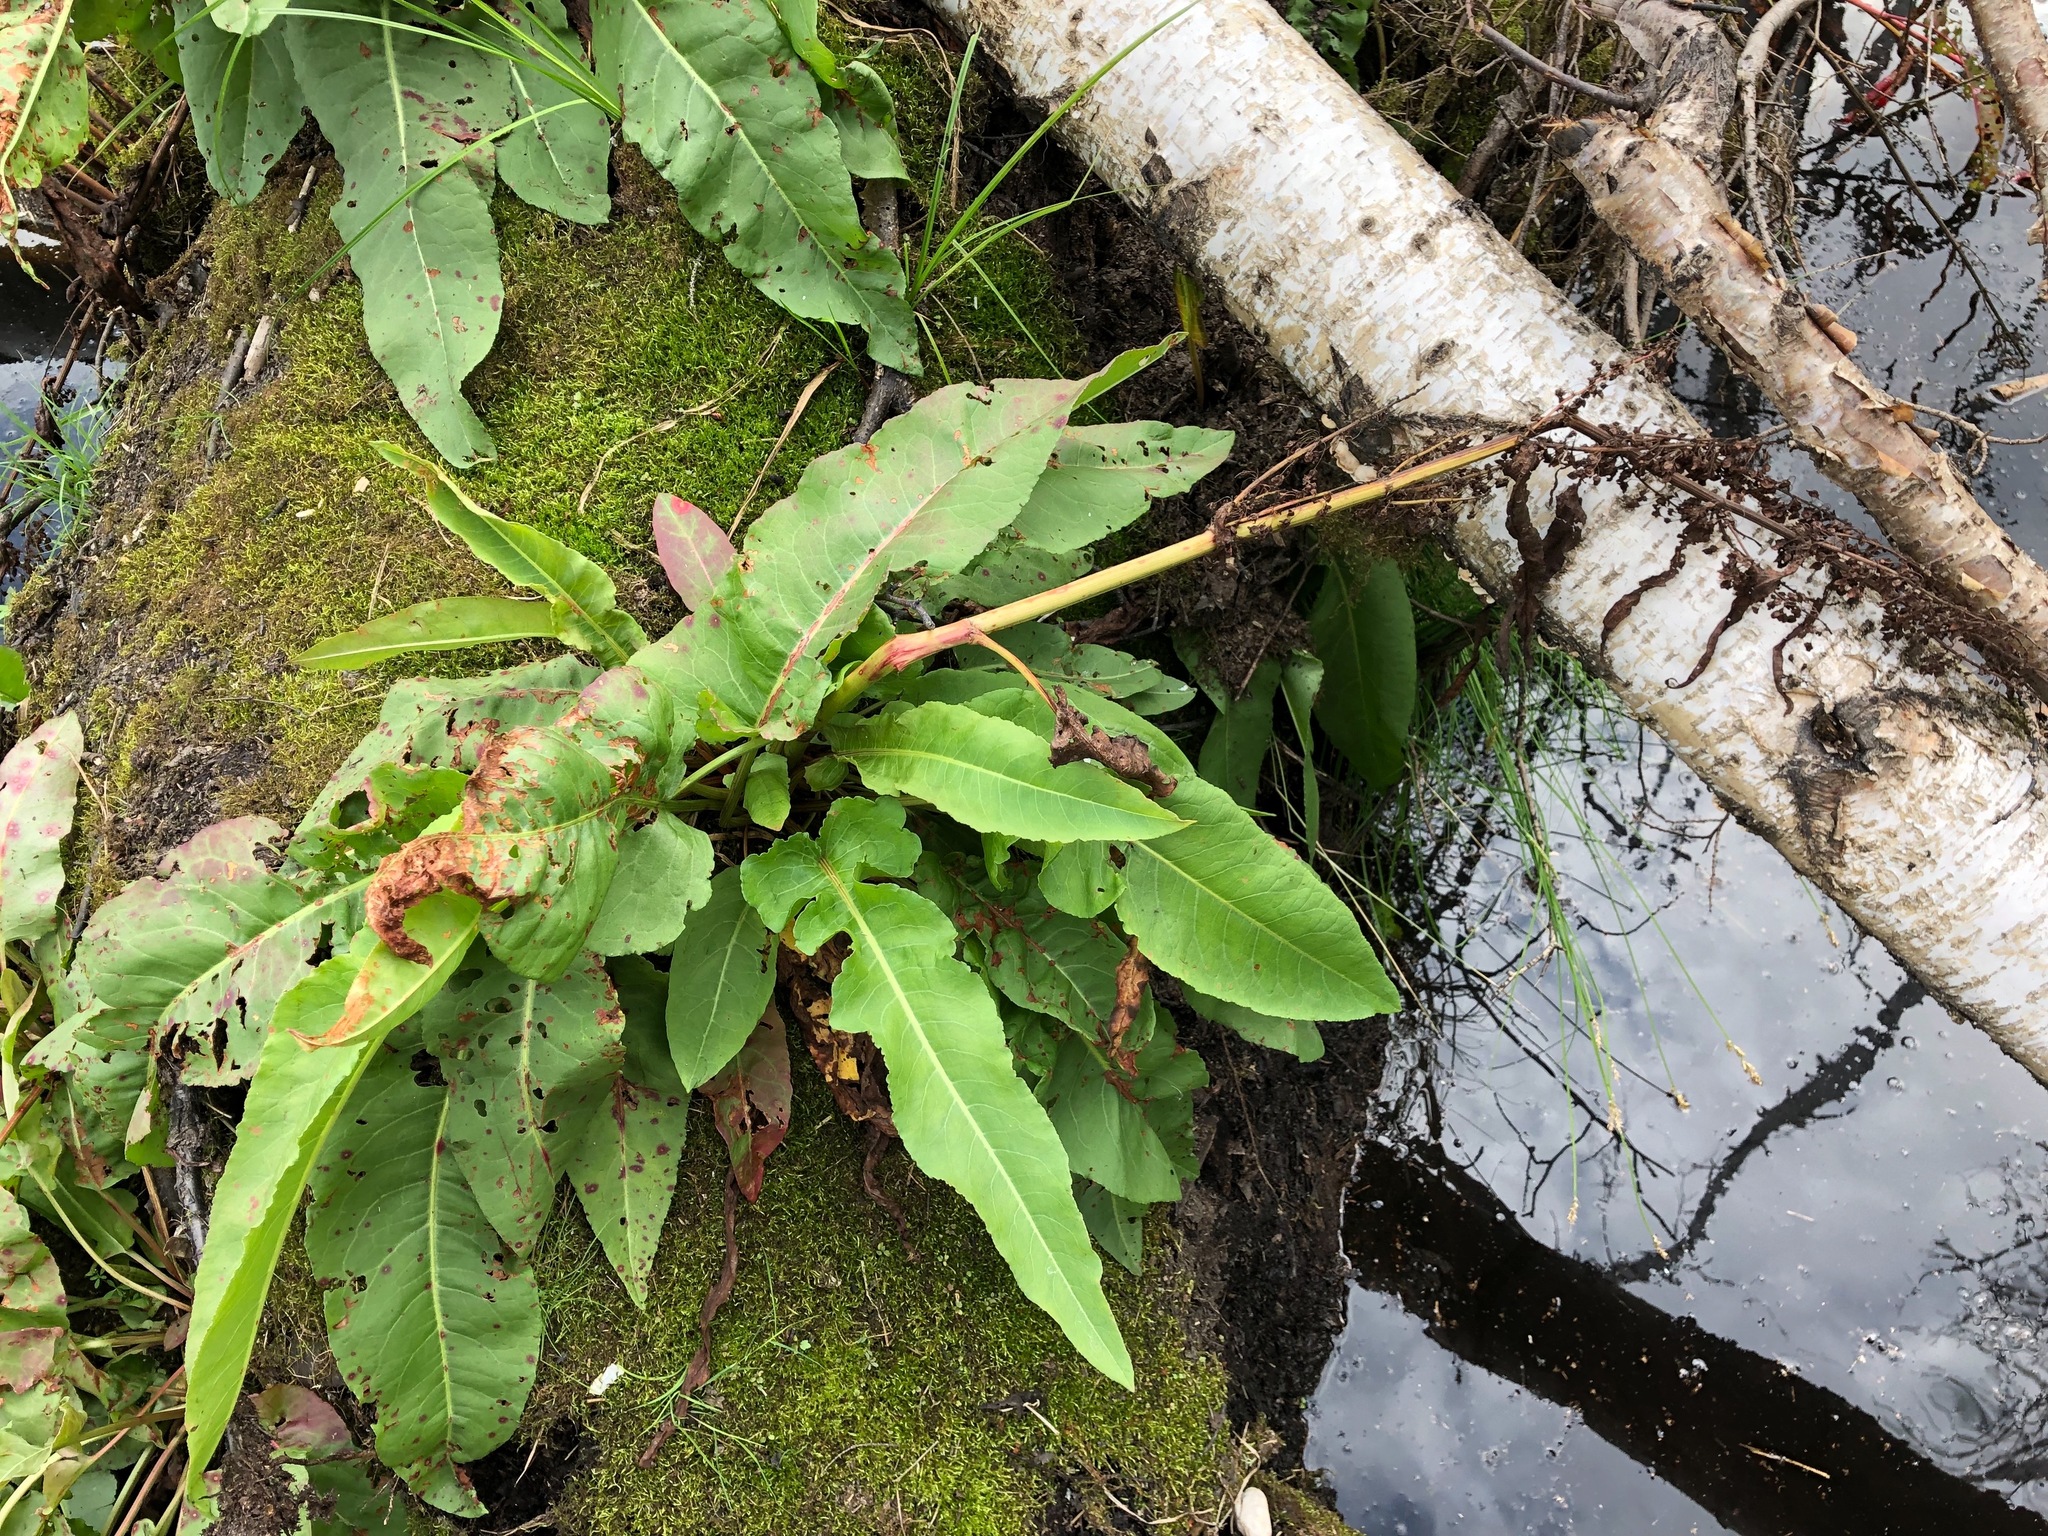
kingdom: Plantae
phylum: Tracheophyta
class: Magnoliopsida
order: Caryophyllales
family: Polygonaceae
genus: Rumex
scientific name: Rumex occidentalis
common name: Western dock
